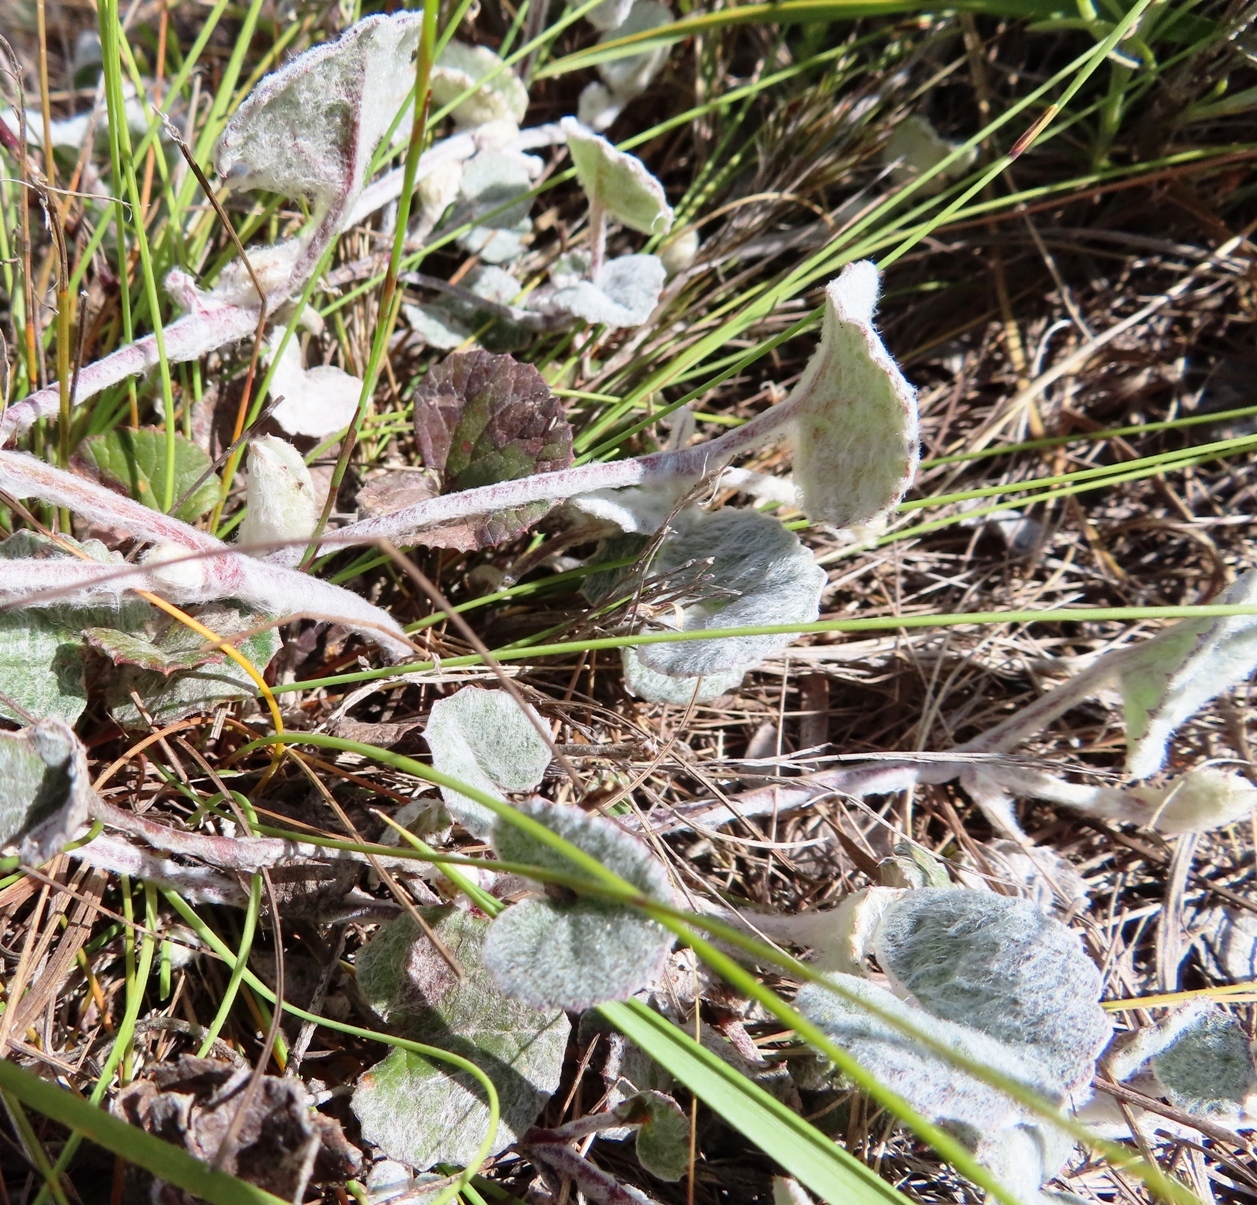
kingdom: Plantae
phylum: Tracheophyta
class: Magnoliopsida
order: Apiales
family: Apiaceae
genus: Centella
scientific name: Centella eriantha
